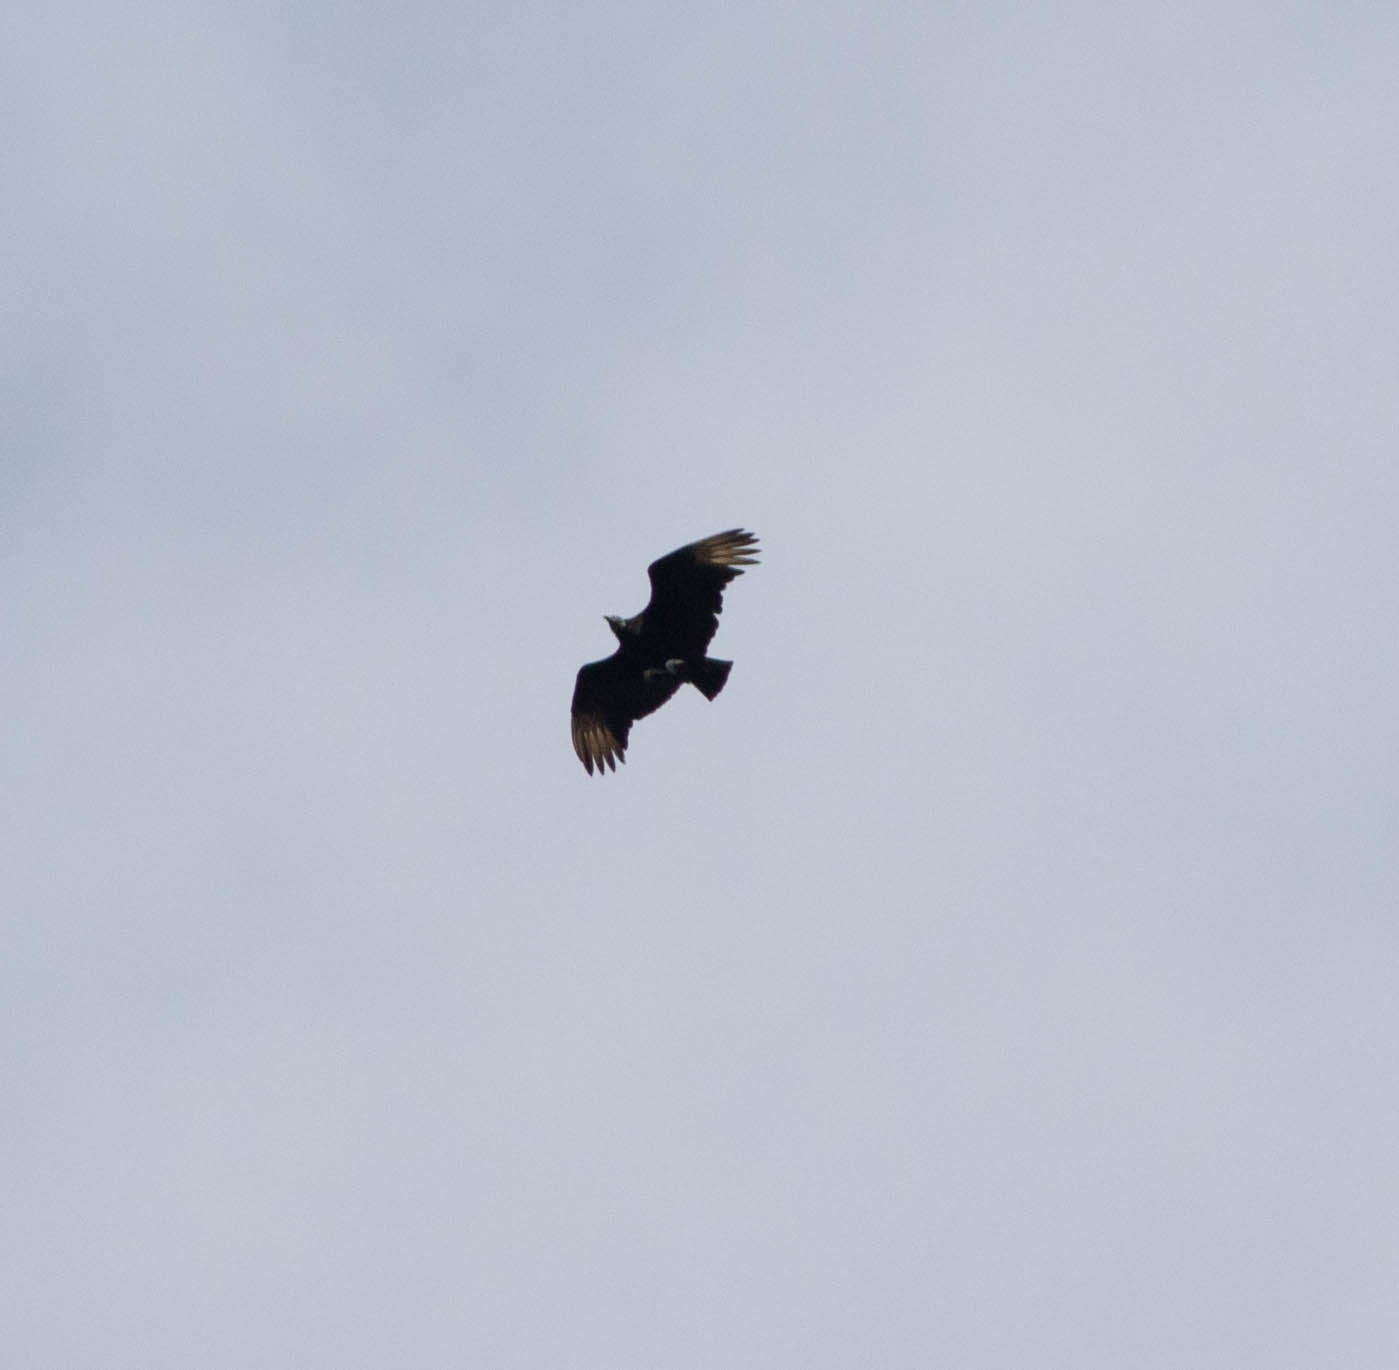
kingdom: Animalia
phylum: Chordata
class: Aves
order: Accipitriformes
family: Cathartidae
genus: Coragyps
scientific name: Coragyps atratus
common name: Black vulture
